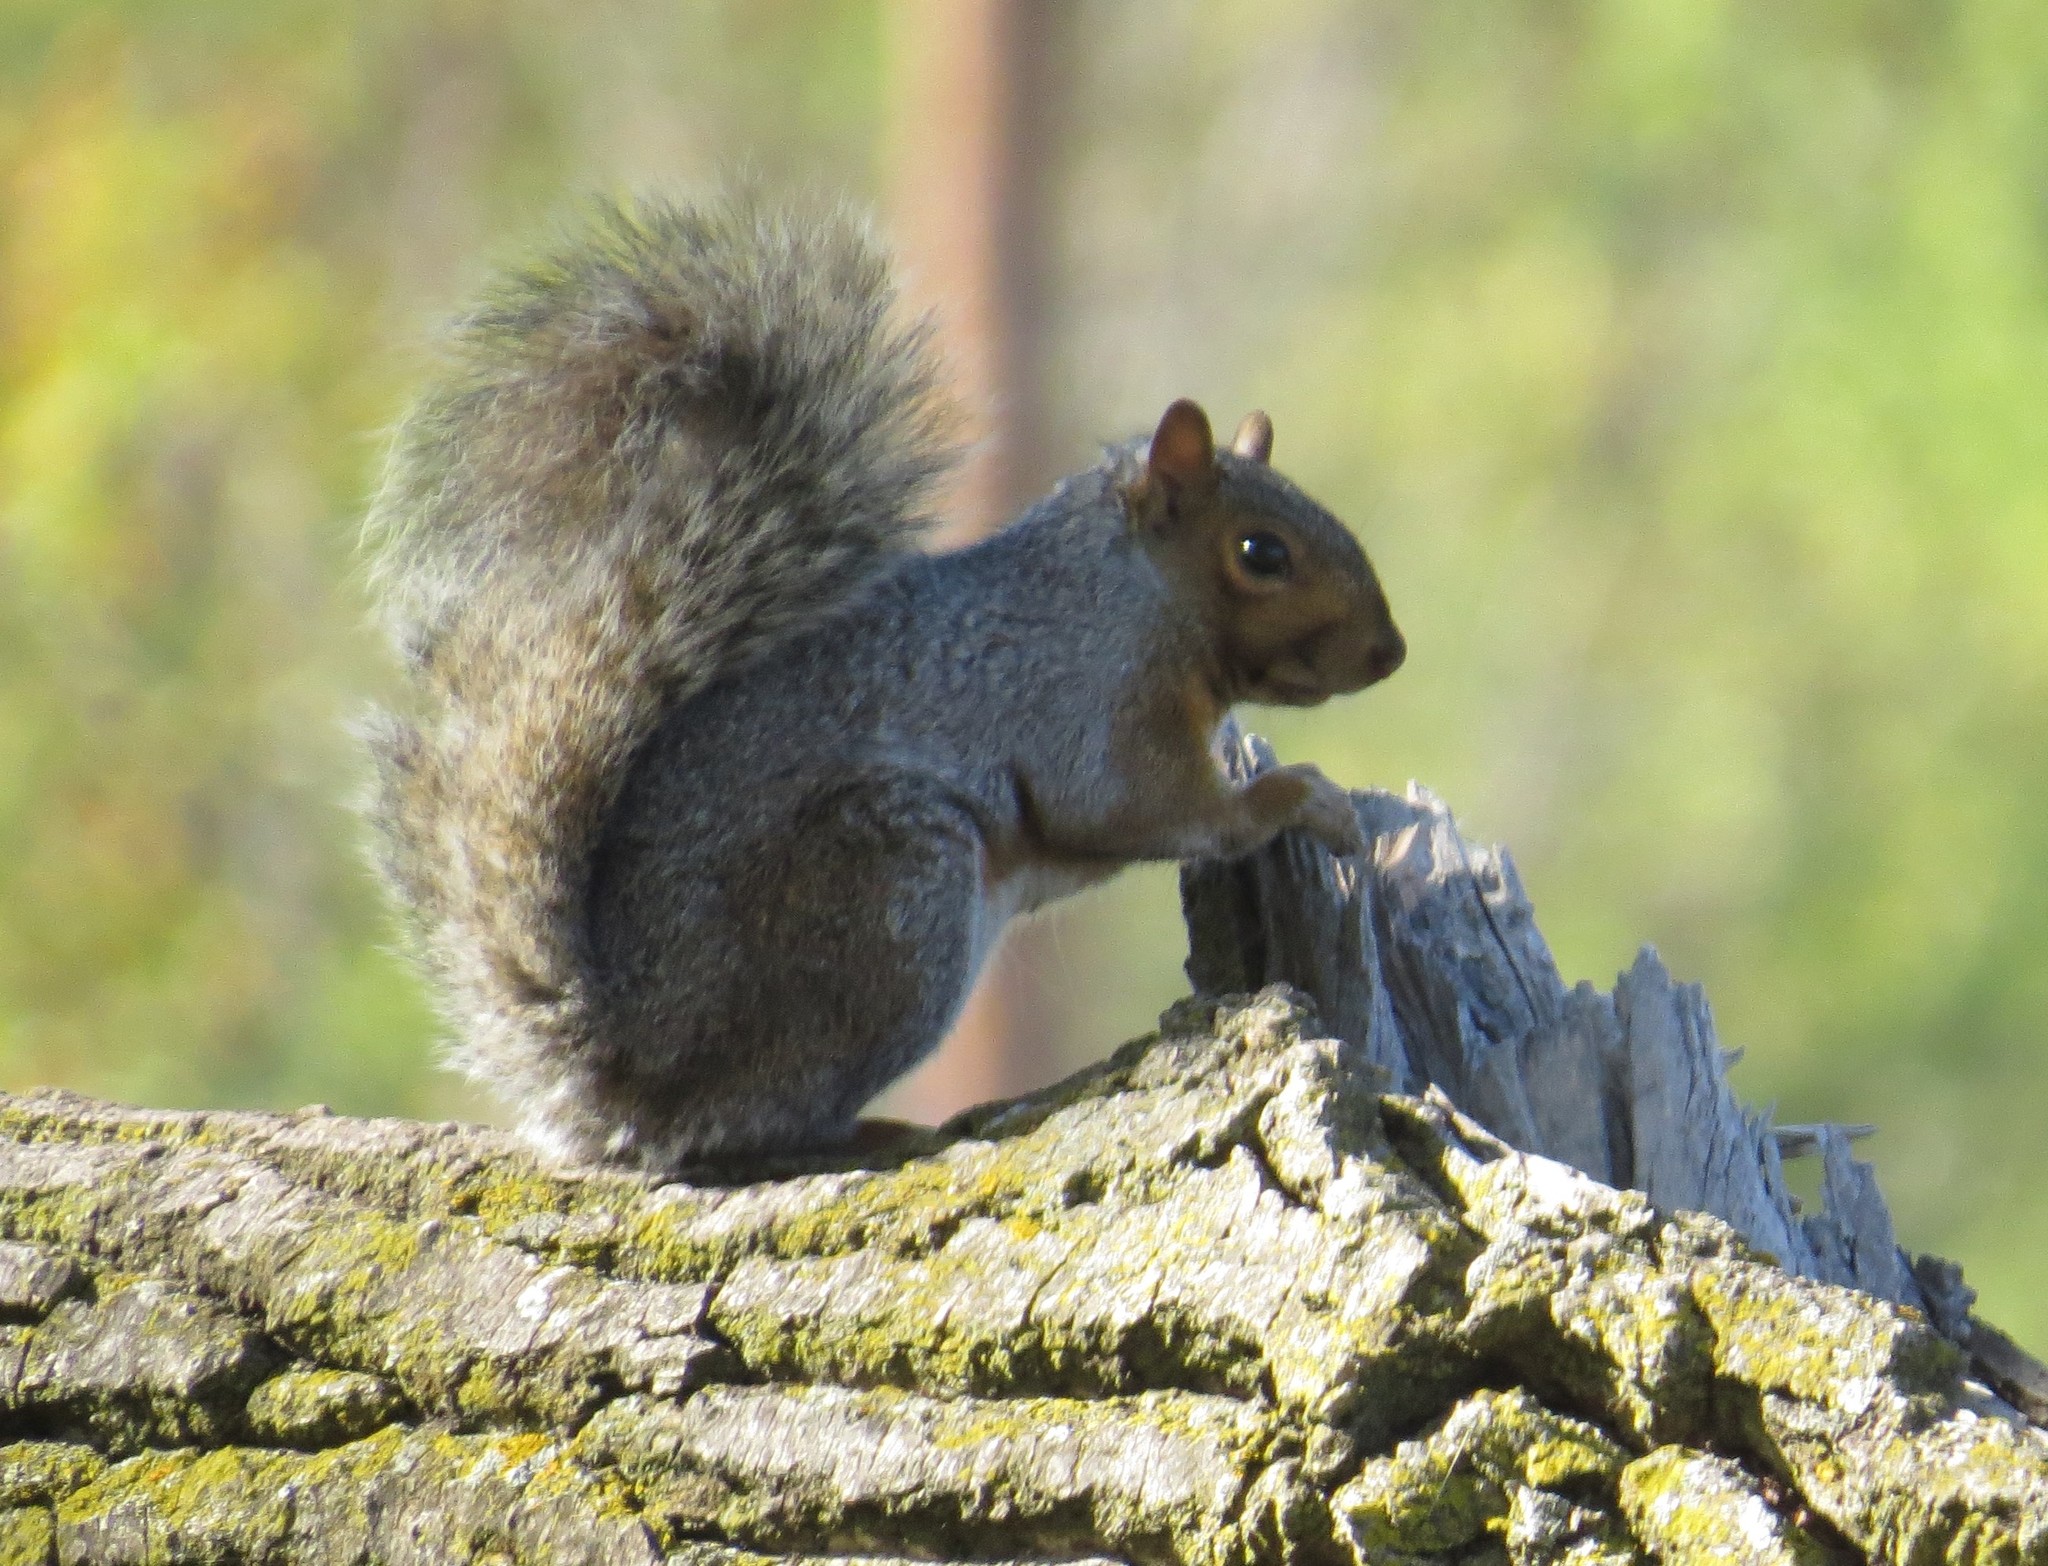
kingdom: Animalia
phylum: Chordata
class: Mammalia
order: Rodentia
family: Sciuridae
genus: Sciurus
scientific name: Sciurus carolinensis
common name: Eastern gray squirrel
